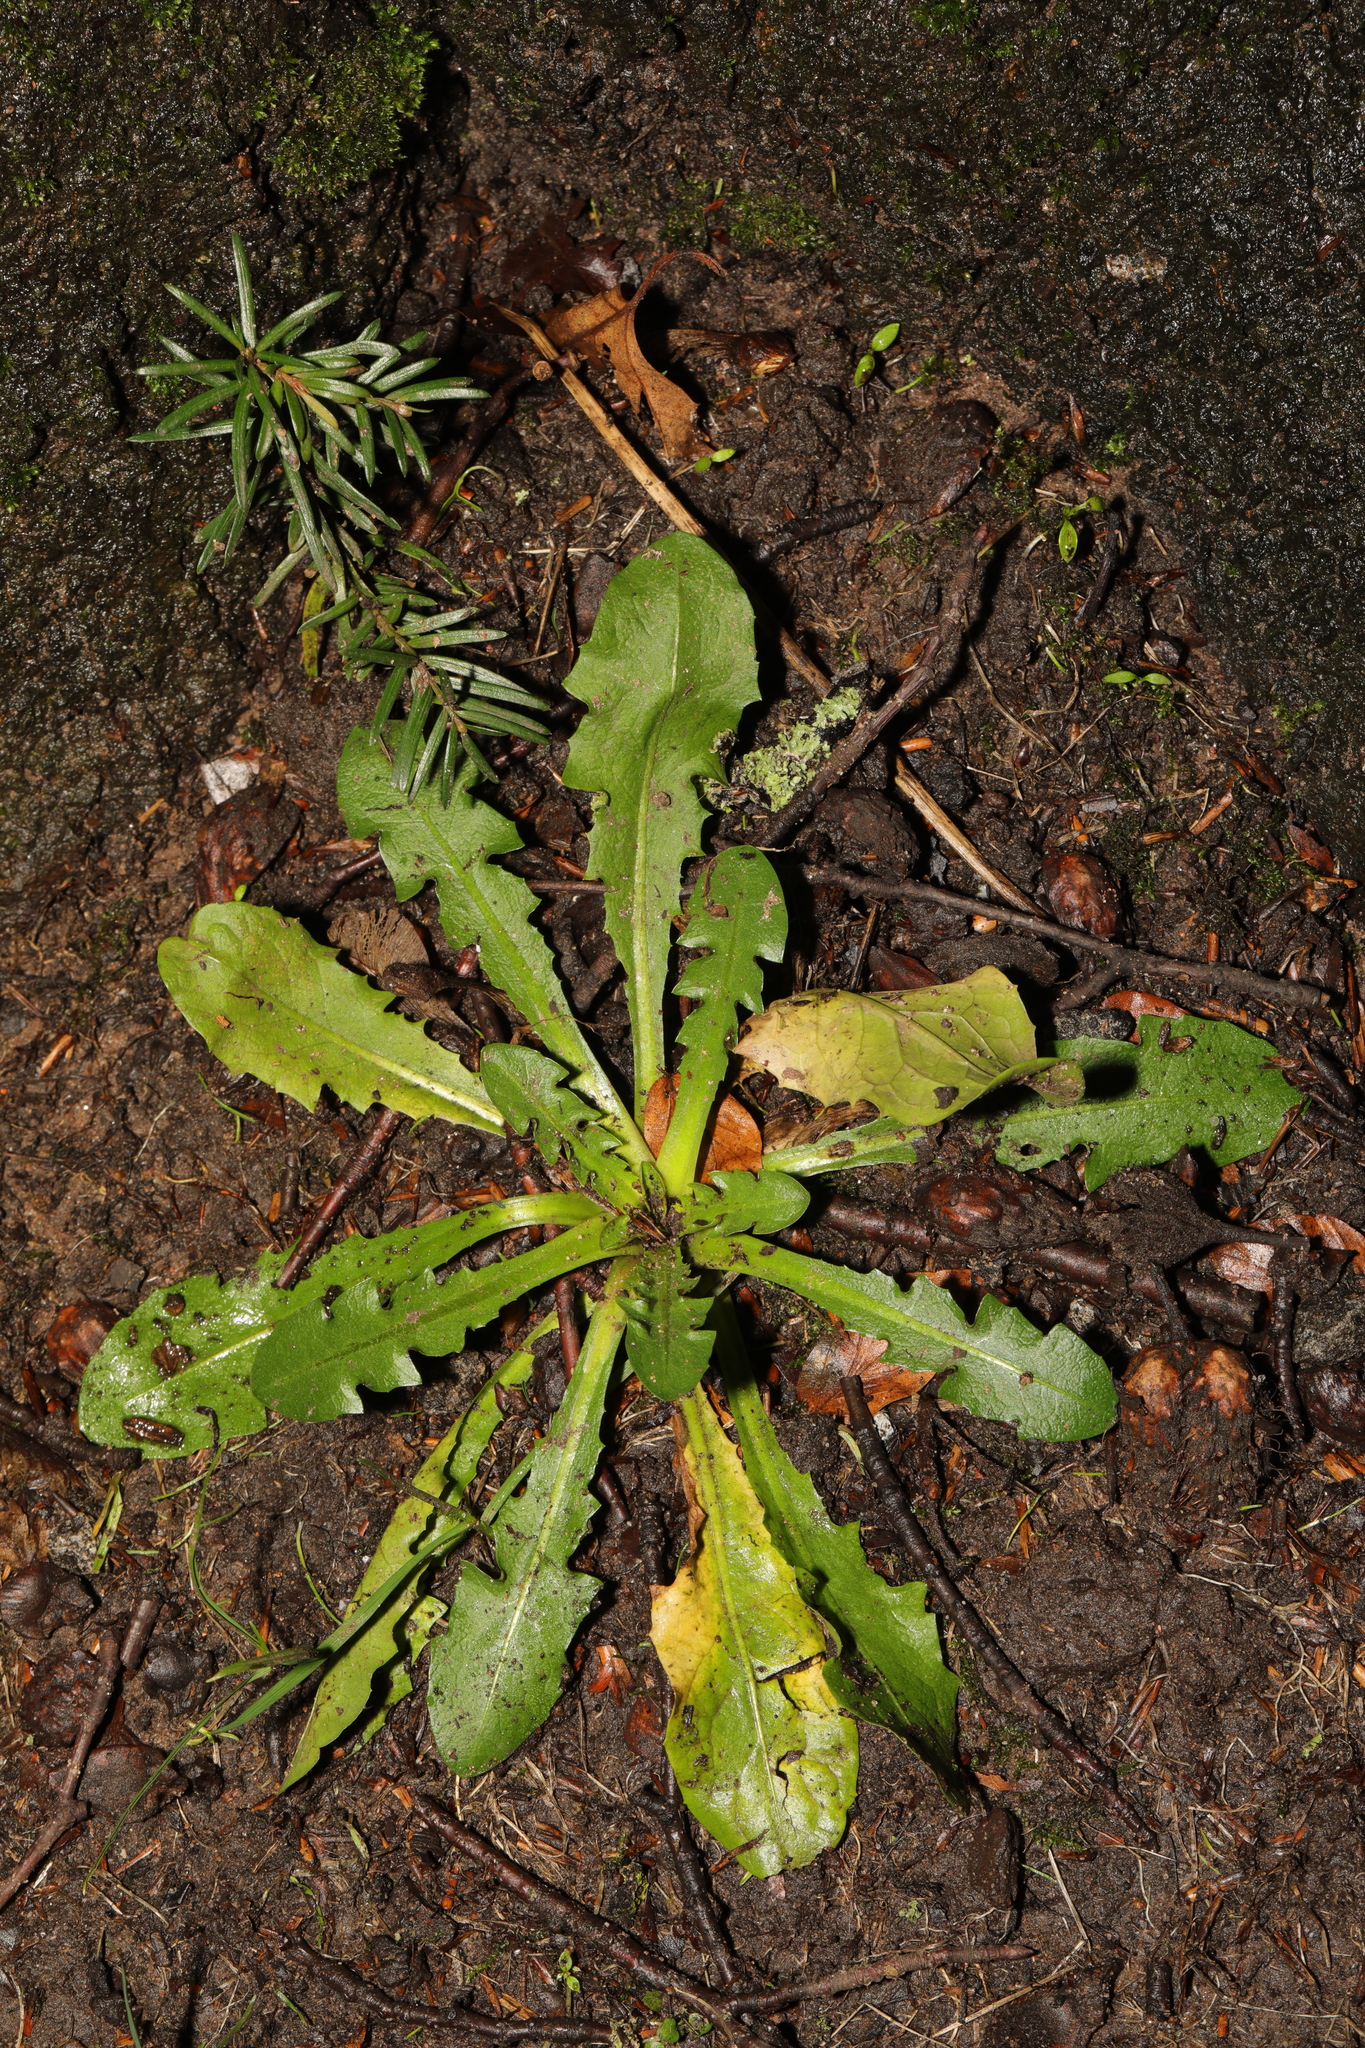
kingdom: Plantae
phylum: Tracheophyta
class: Magnoliopsida
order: Asterales
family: Asteraceae
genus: Taraxacum
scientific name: Taraxacum officinale
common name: Common dandelion
